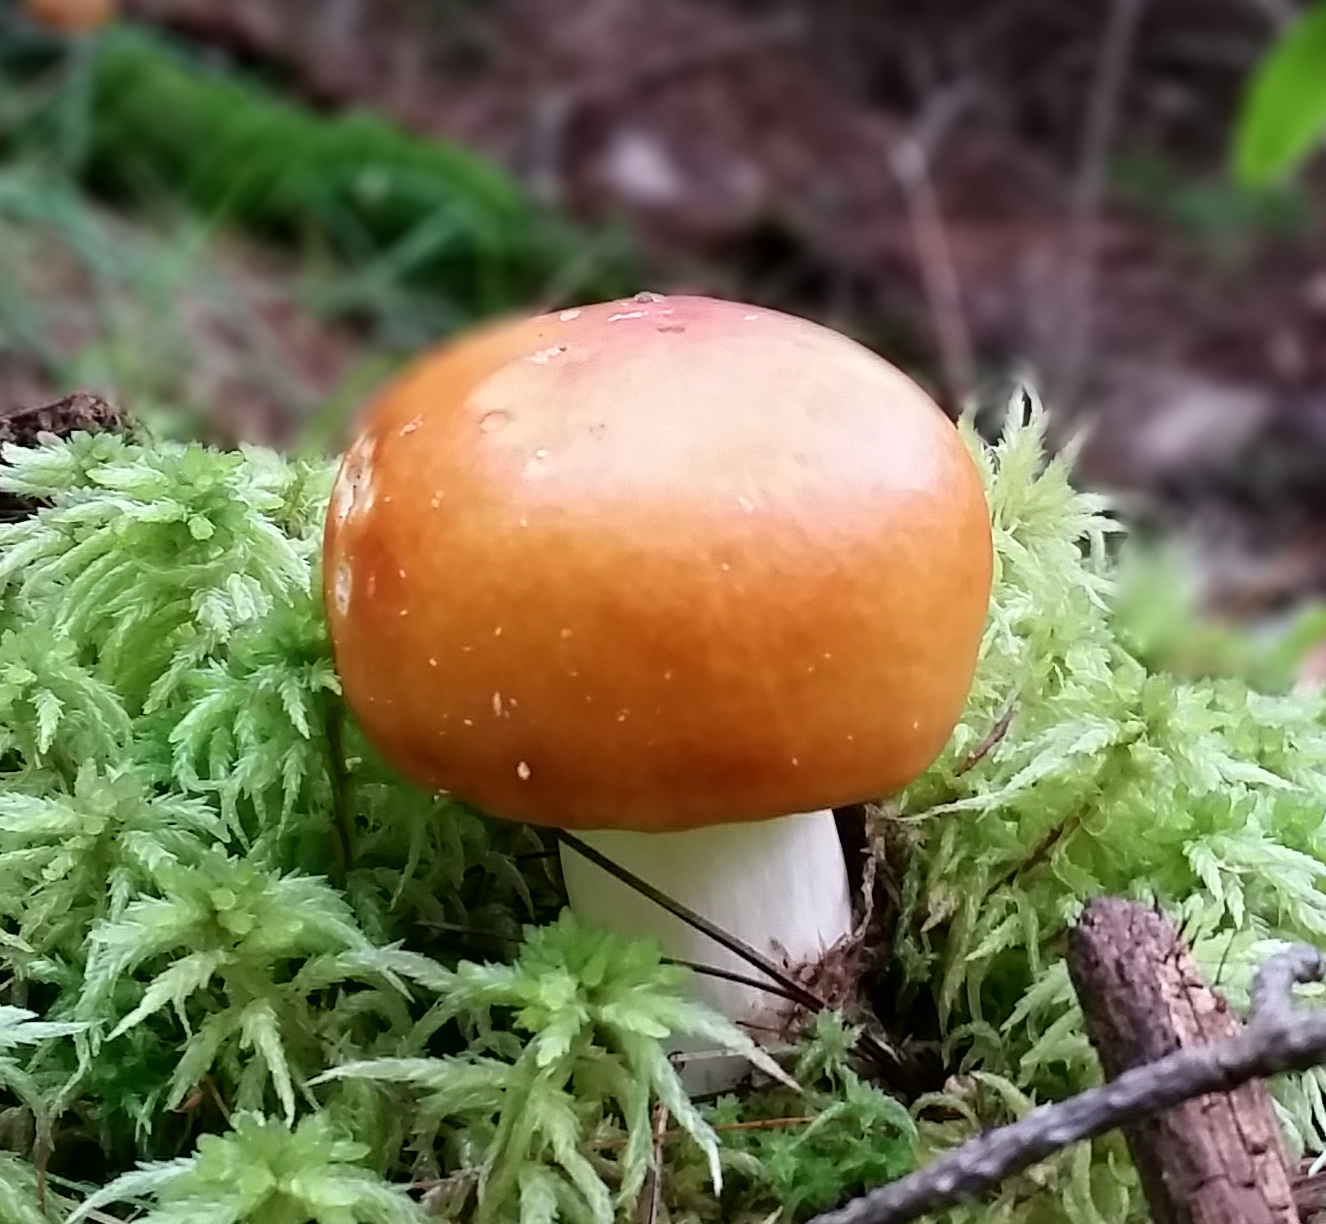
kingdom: Fungi
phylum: Basidiomycota
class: Agaricomycetes
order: Russulales
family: Russulaceae
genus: Russula
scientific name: Russula
